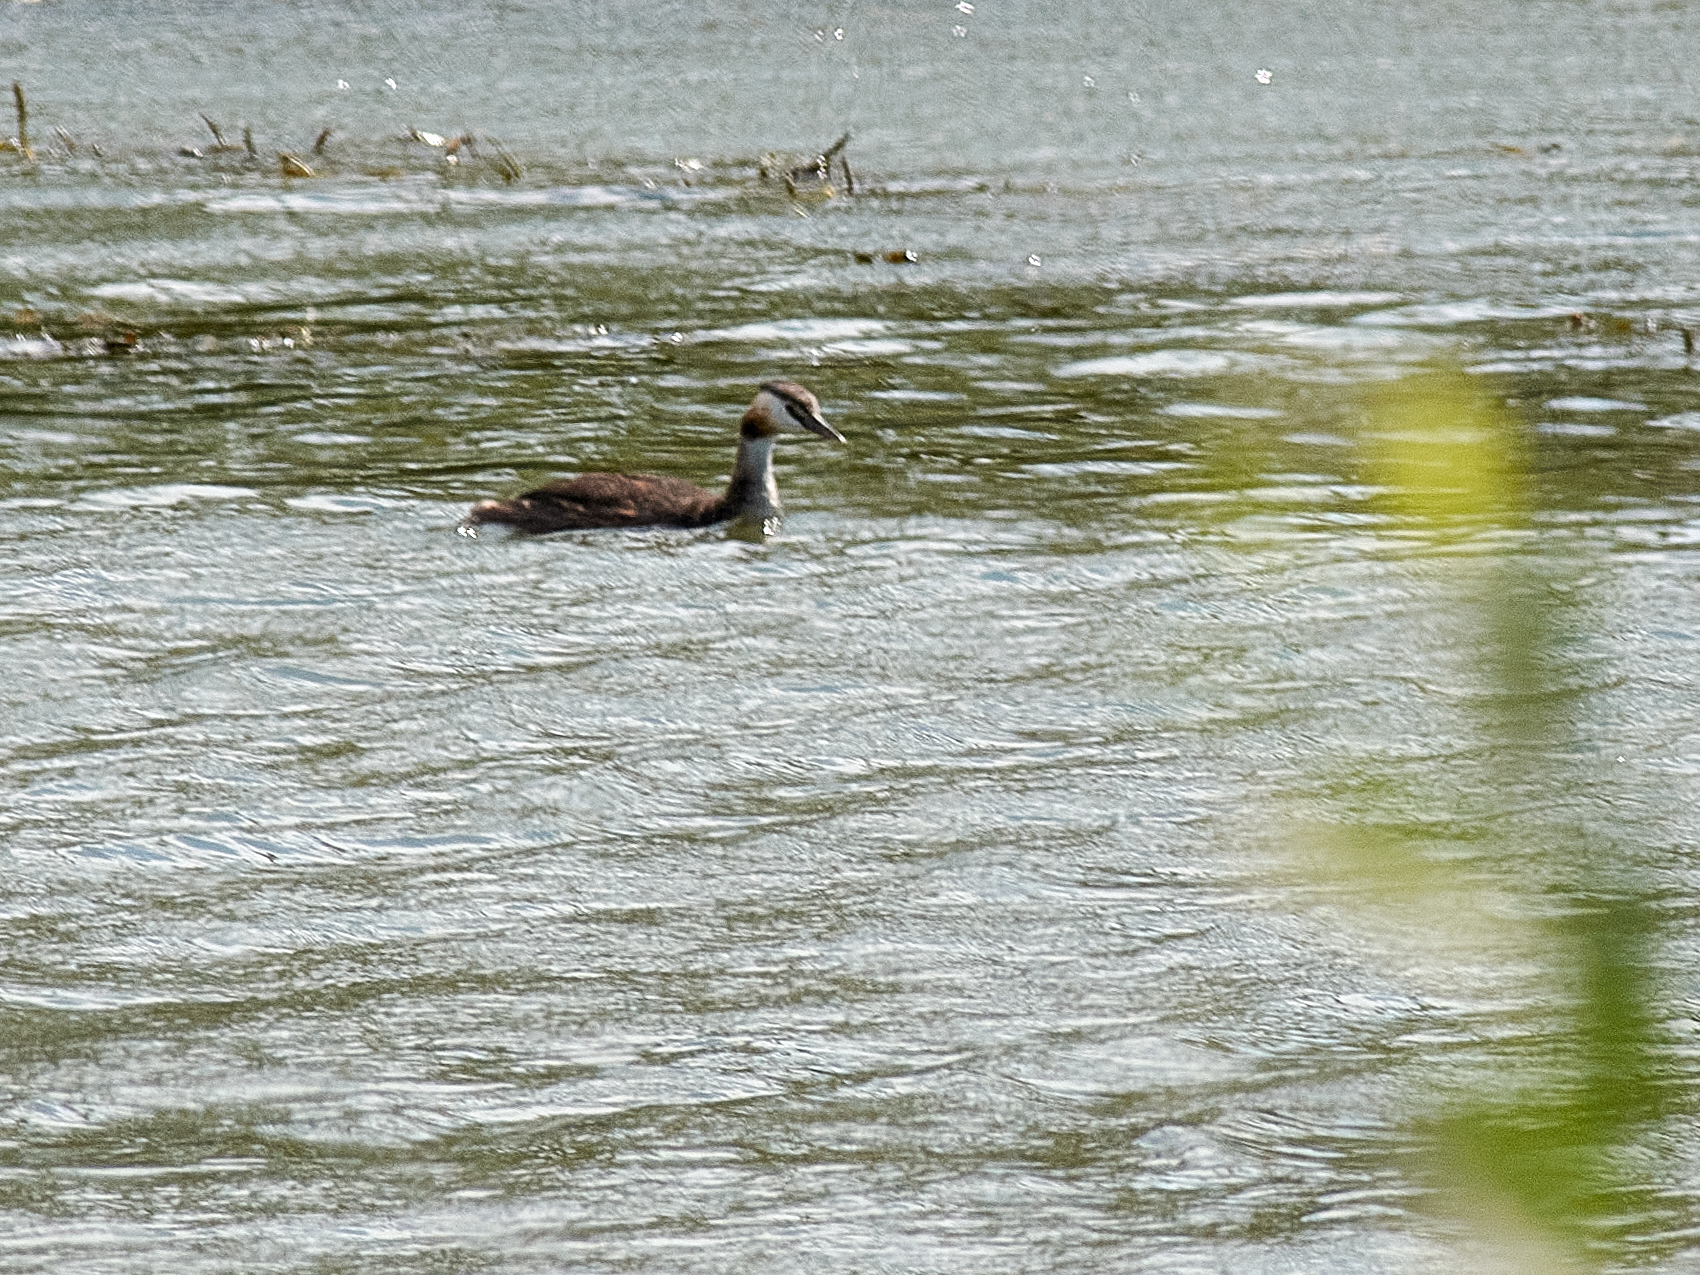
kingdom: Animalia
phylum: Chordata
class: Aves
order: Podicipediformes
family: Podicipedidae
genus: Podiceps
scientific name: Podiceps cristatus
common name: Great crested grebe
